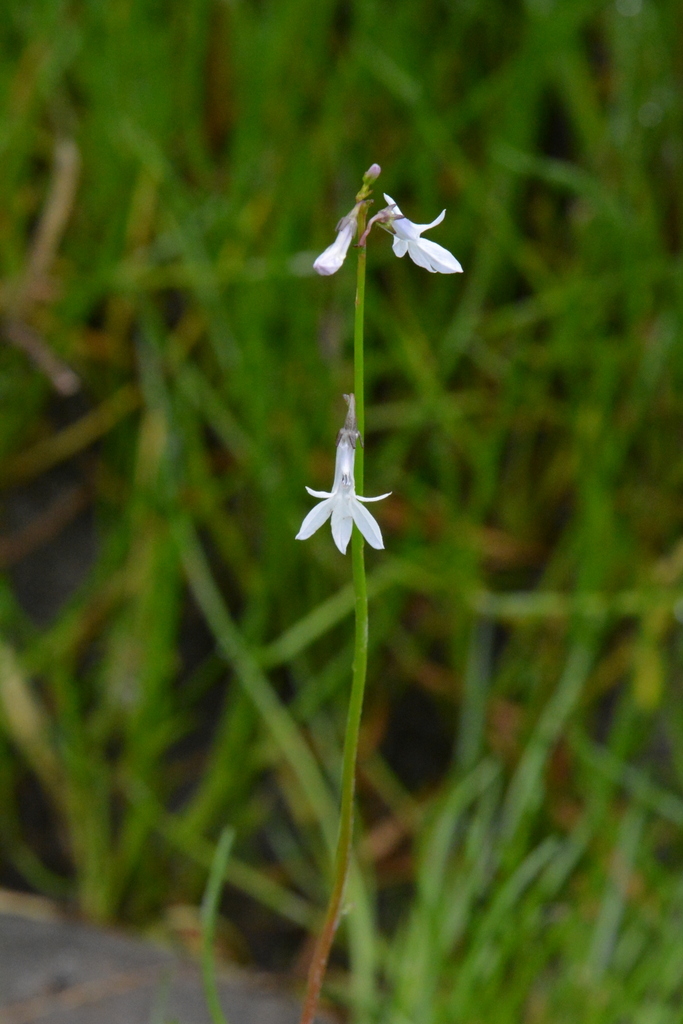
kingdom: Plantae
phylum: Tracheophyta
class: Magnoliopsida
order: Asterales
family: Campanulaceae
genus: Lobelia
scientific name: Lobelia dortmanna
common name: Water lobelia
